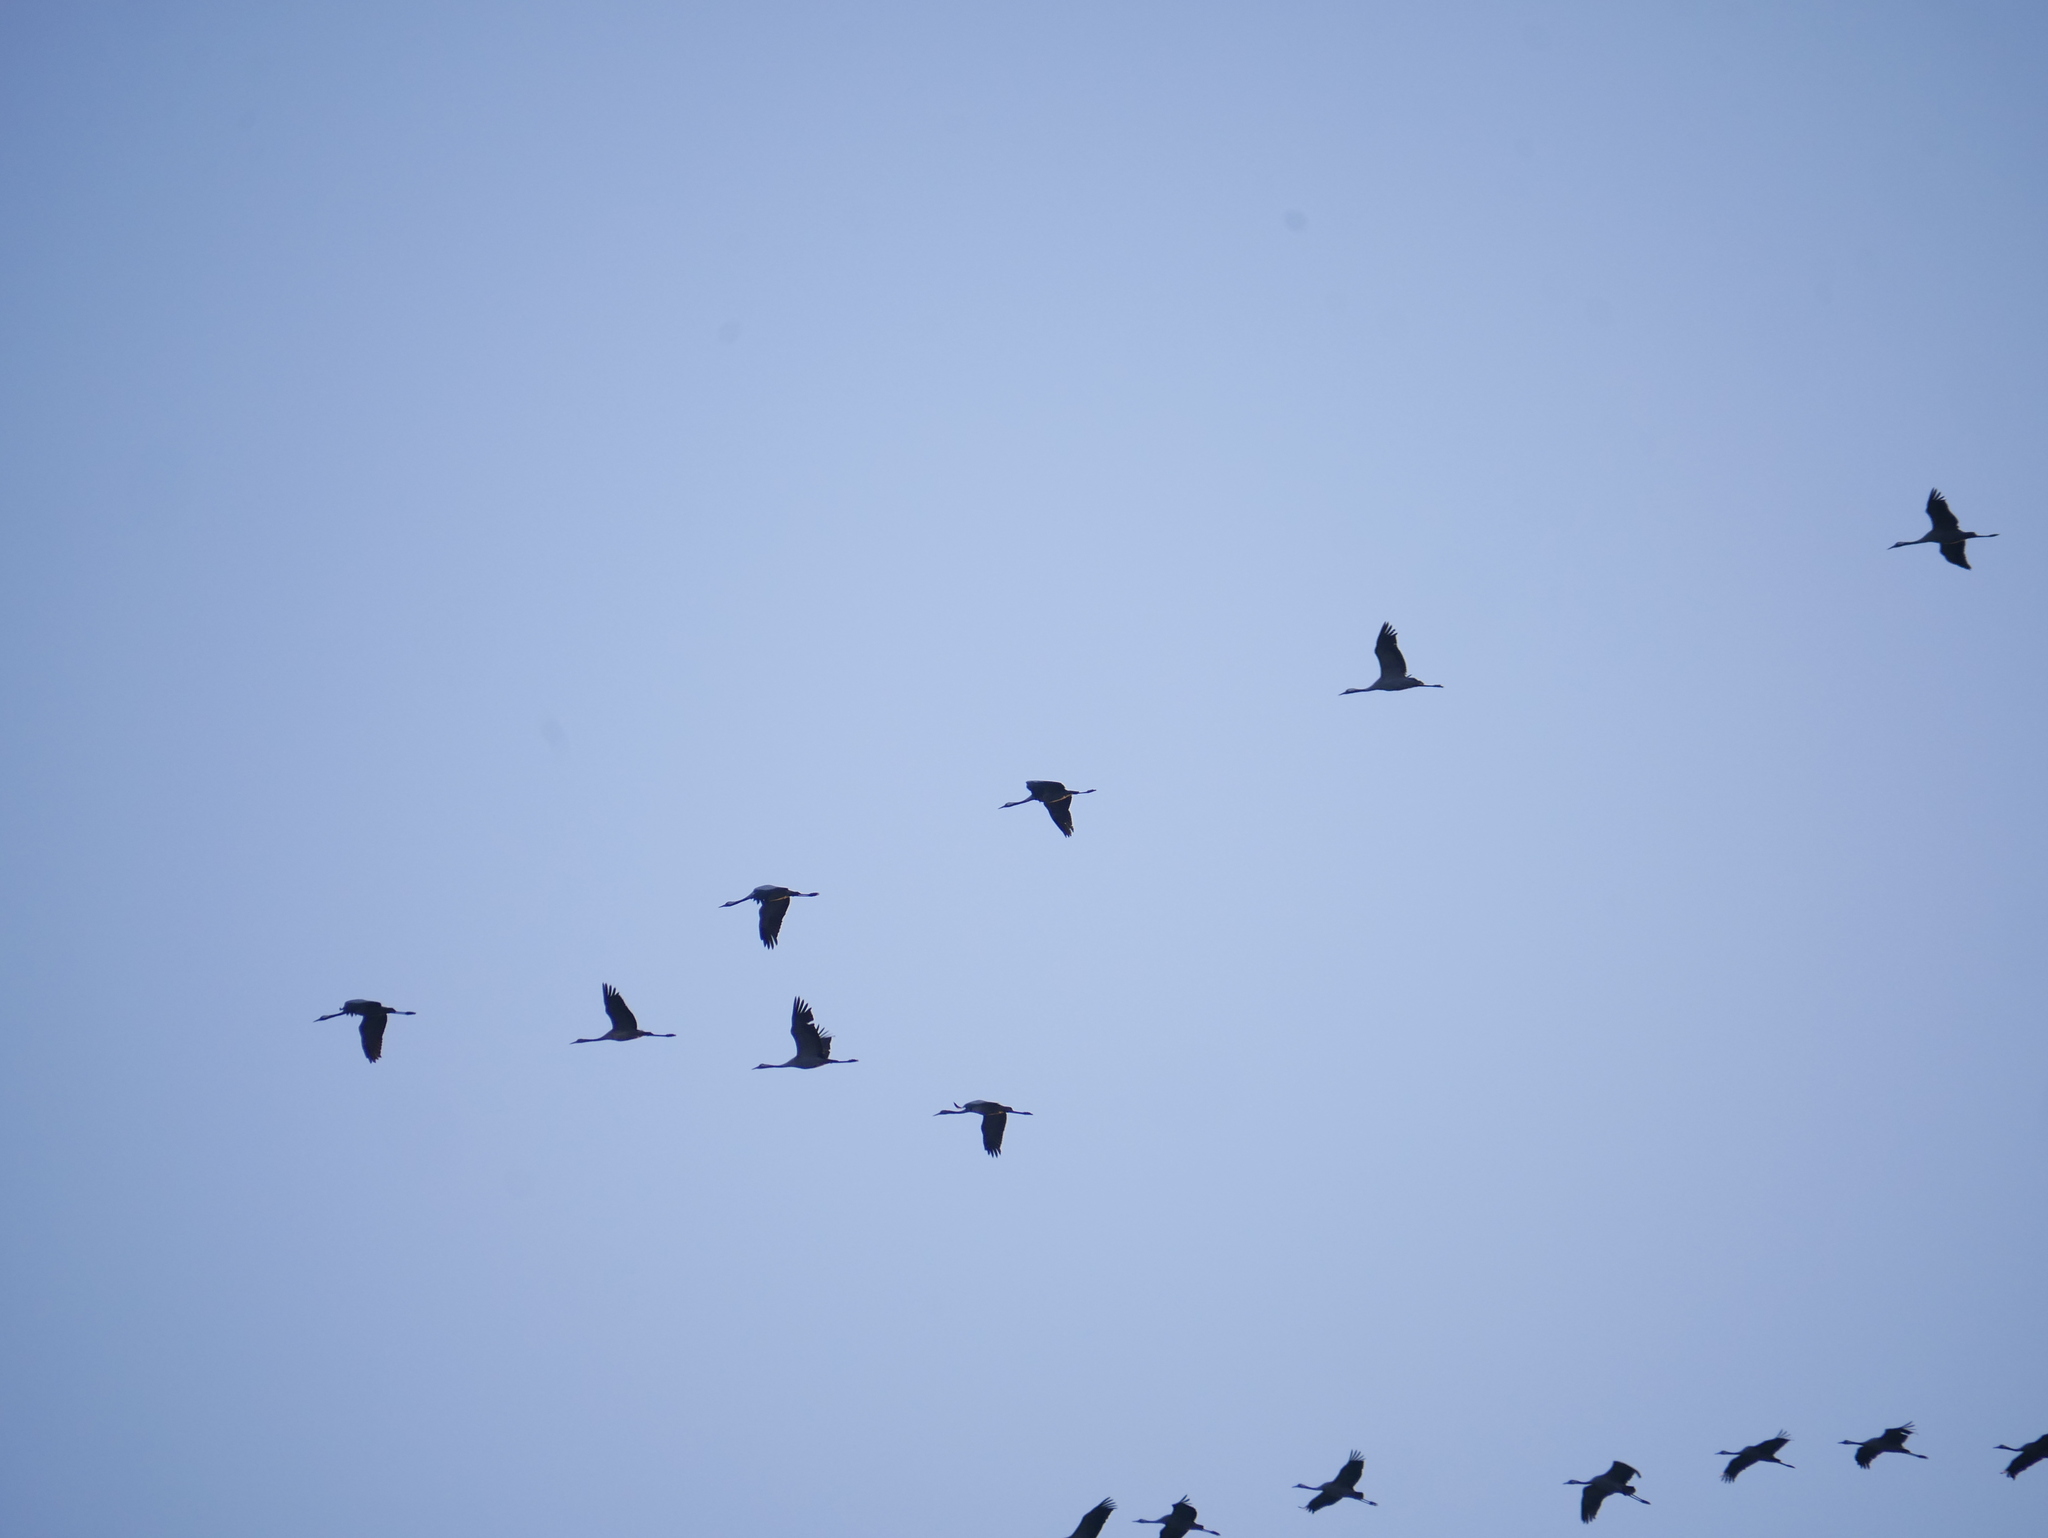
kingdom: Animalia
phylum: Chordata
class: Aves
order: Gruiformes
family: Gruidae
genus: Grus
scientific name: Grus grus
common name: Common crane
